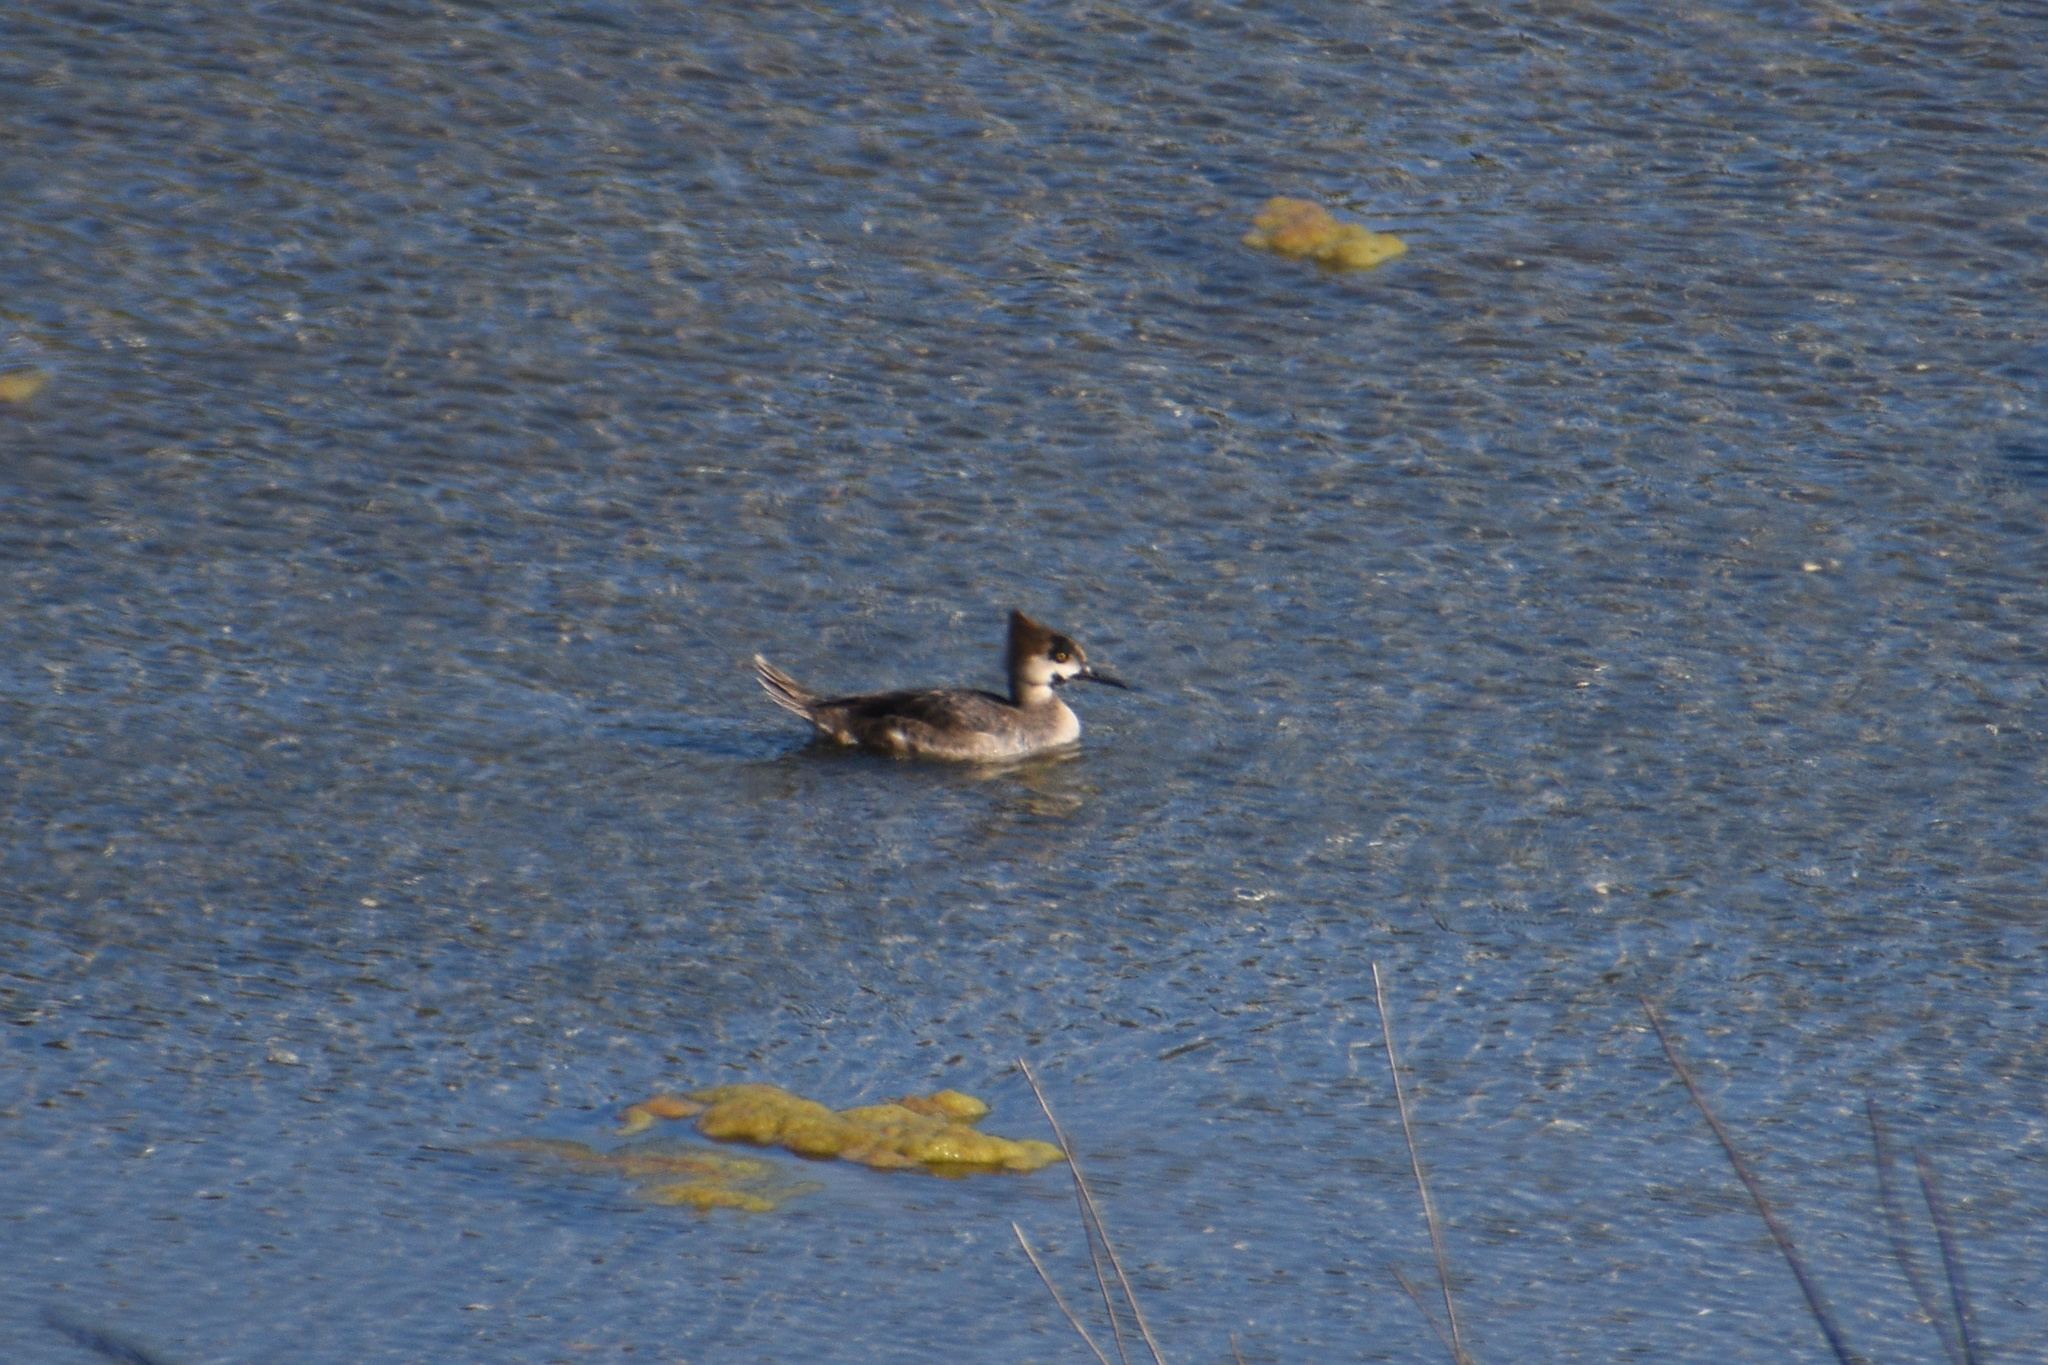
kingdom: Animalia
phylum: Chordata
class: Aves
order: Anseriformes
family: Anatidae
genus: Lophodytes
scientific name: Lophodytes cucullatus
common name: Hooded merganser
